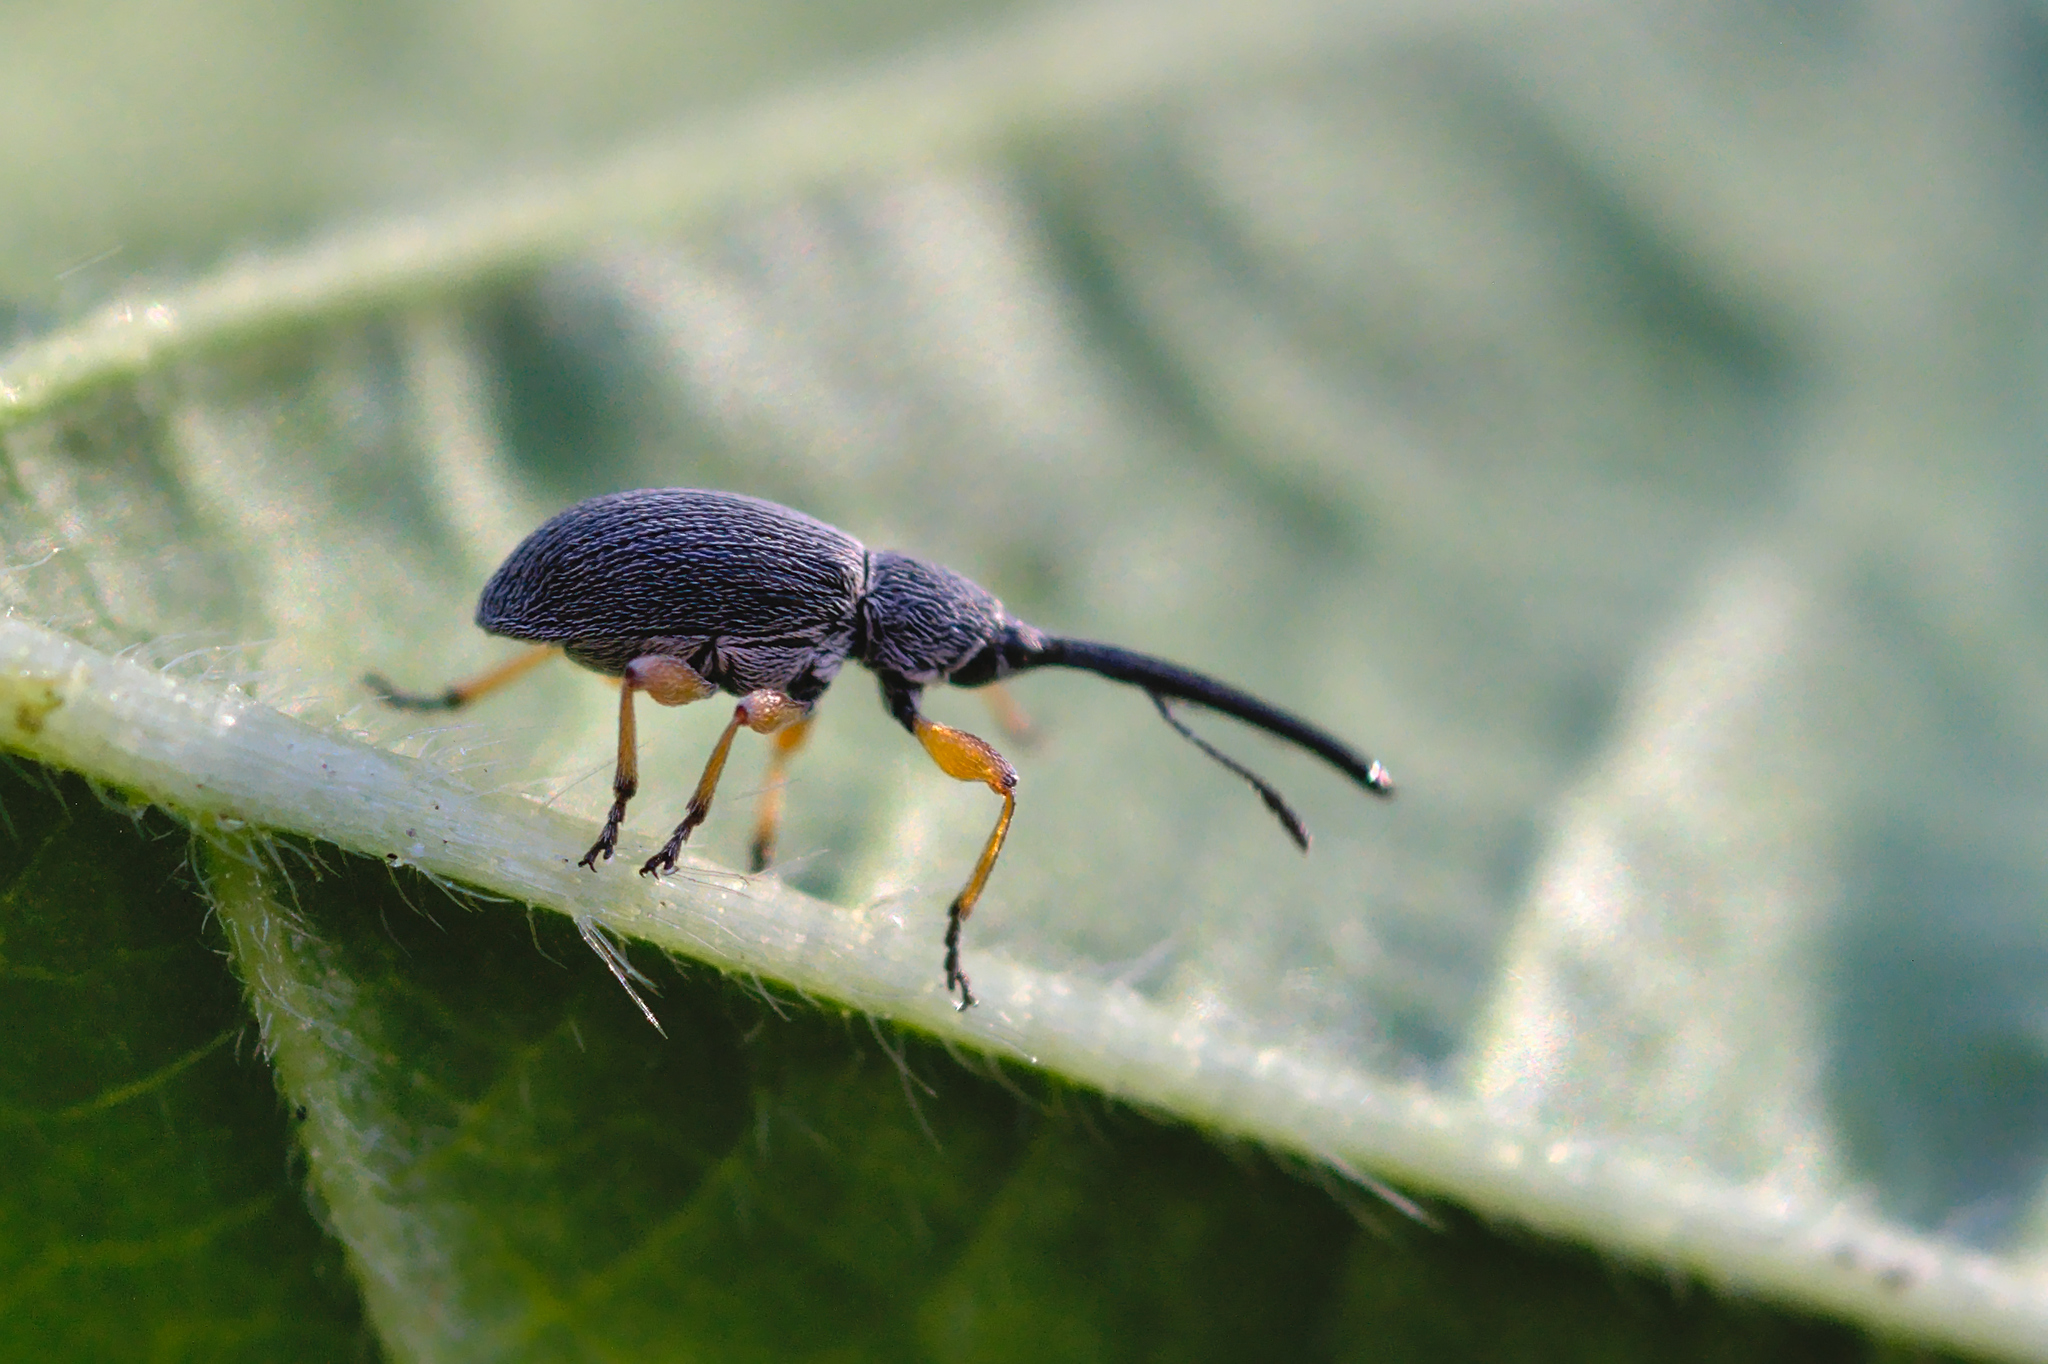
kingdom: Animalia
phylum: Arthropoda
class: Insecta
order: Coleoptera
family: Brentidae
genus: Rhopalapion
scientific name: Rhopalapion longirostre
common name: Hollyhock weevil
